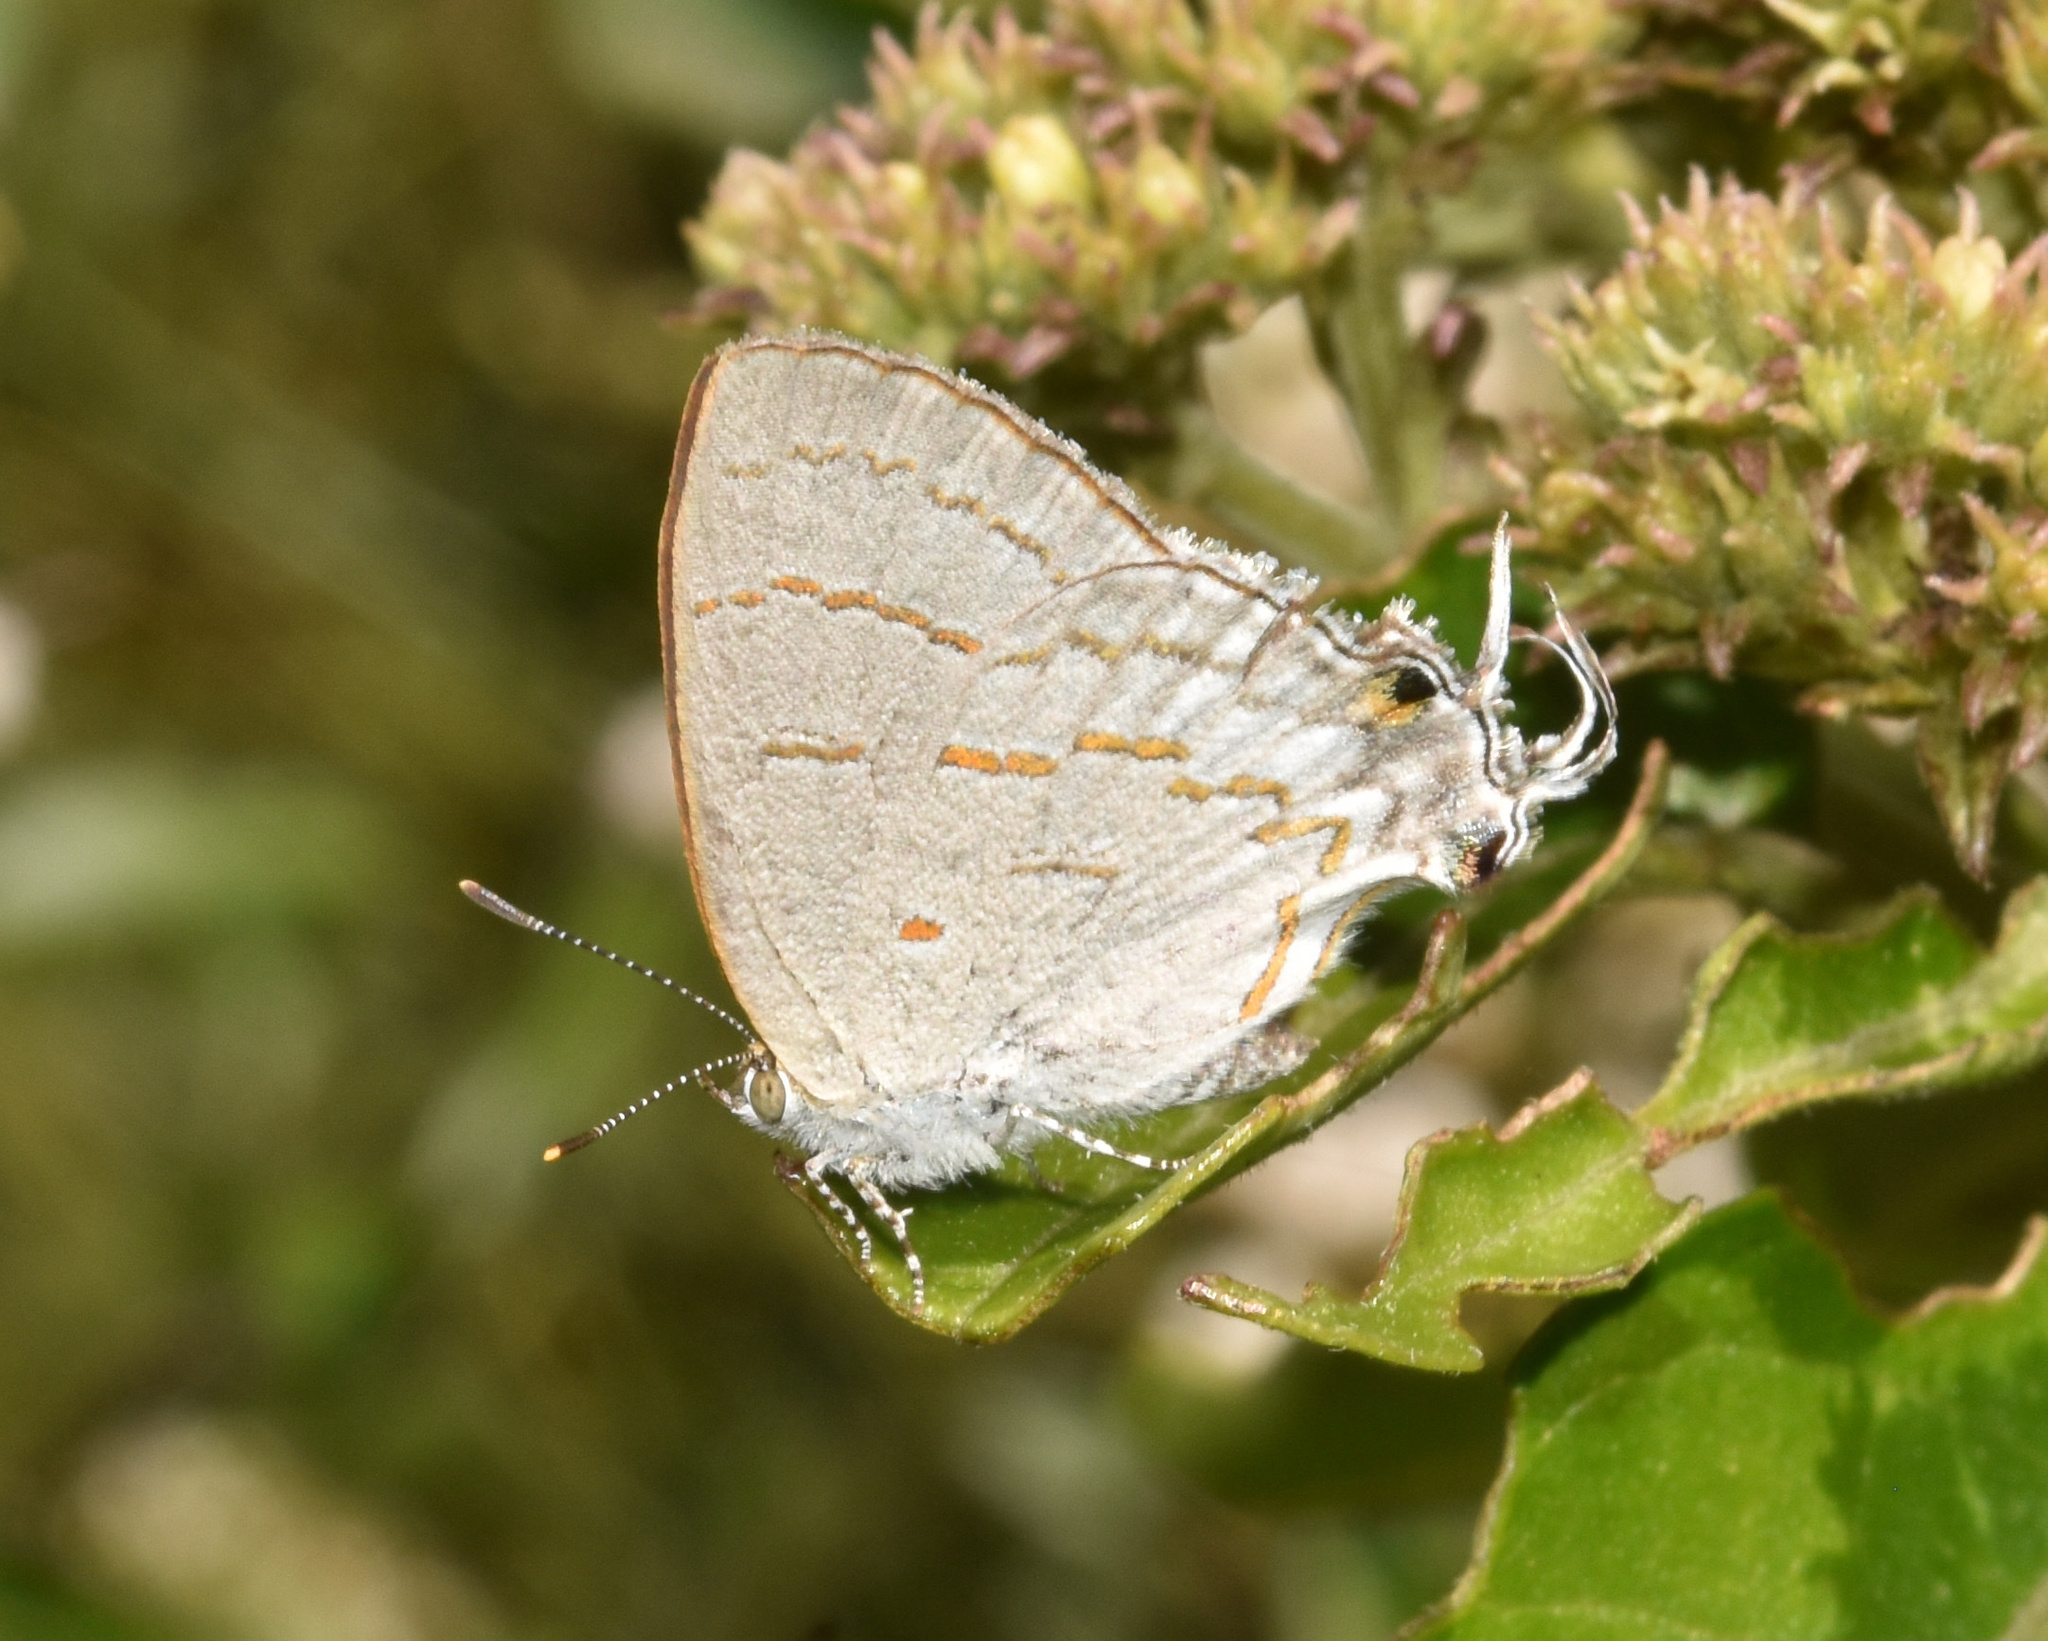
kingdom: Animalia
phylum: Arthropoda
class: Insecta
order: Lepidoptera
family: Lycaenidae
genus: Hypolycaena
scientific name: Hypolycaena philippus
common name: Common hairstreak
